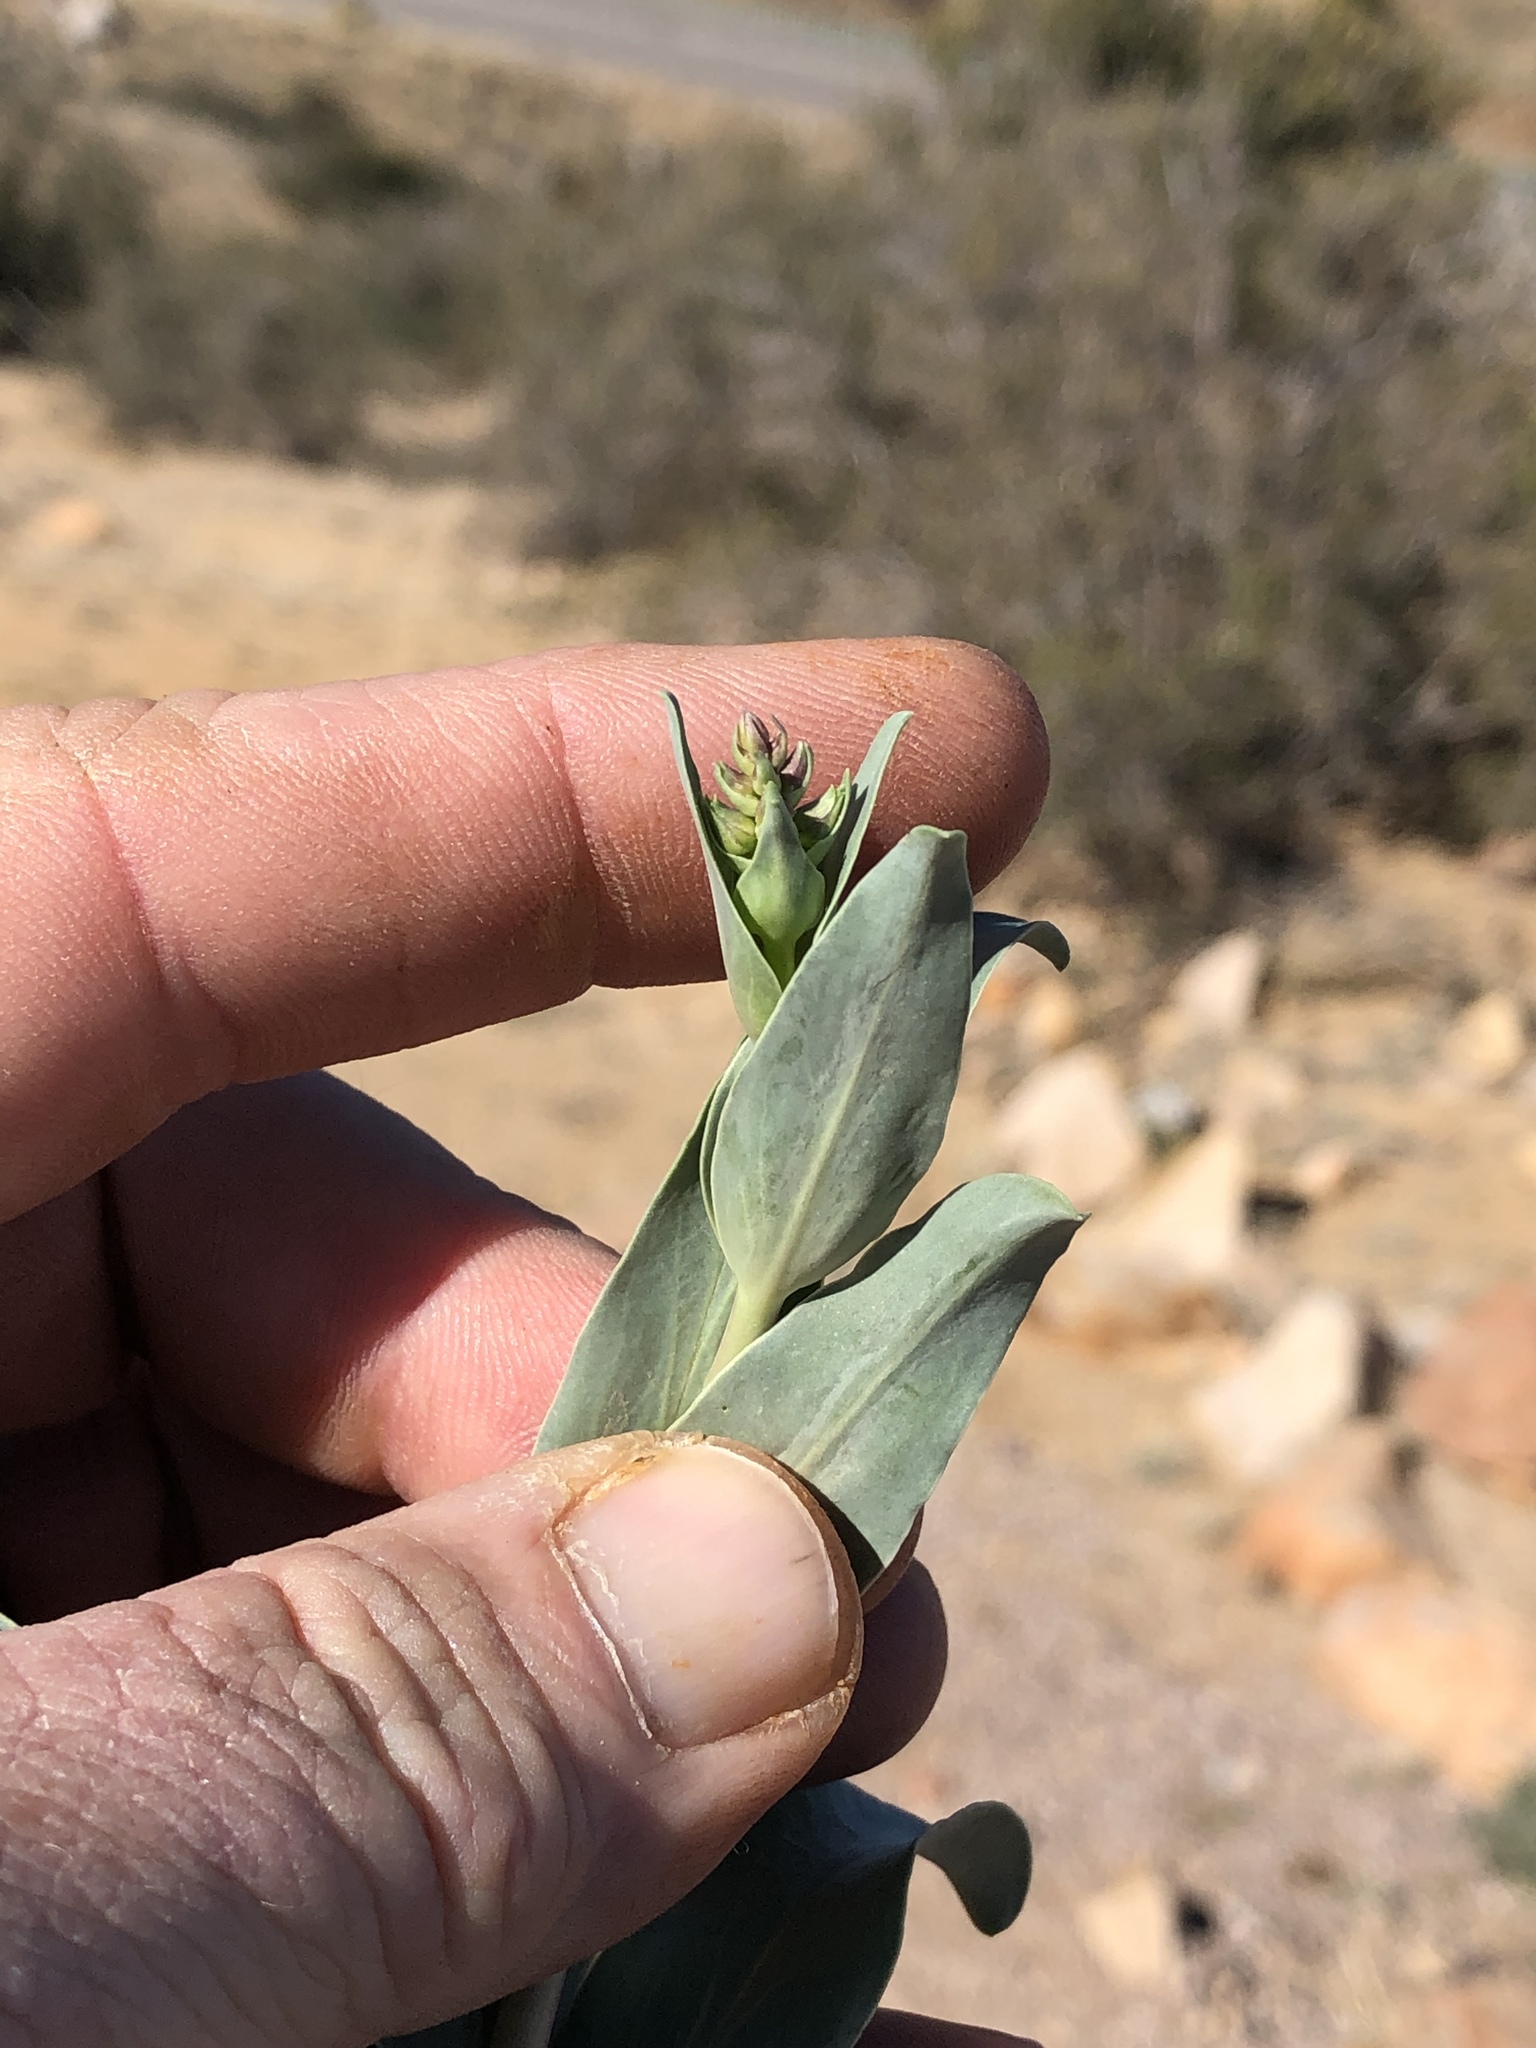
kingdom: Plantae
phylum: Tracheophyta
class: Magnoliopsida
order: Lamiales
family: Plantaginaceae
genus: Penstemon
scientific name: Penstemon fendleri
